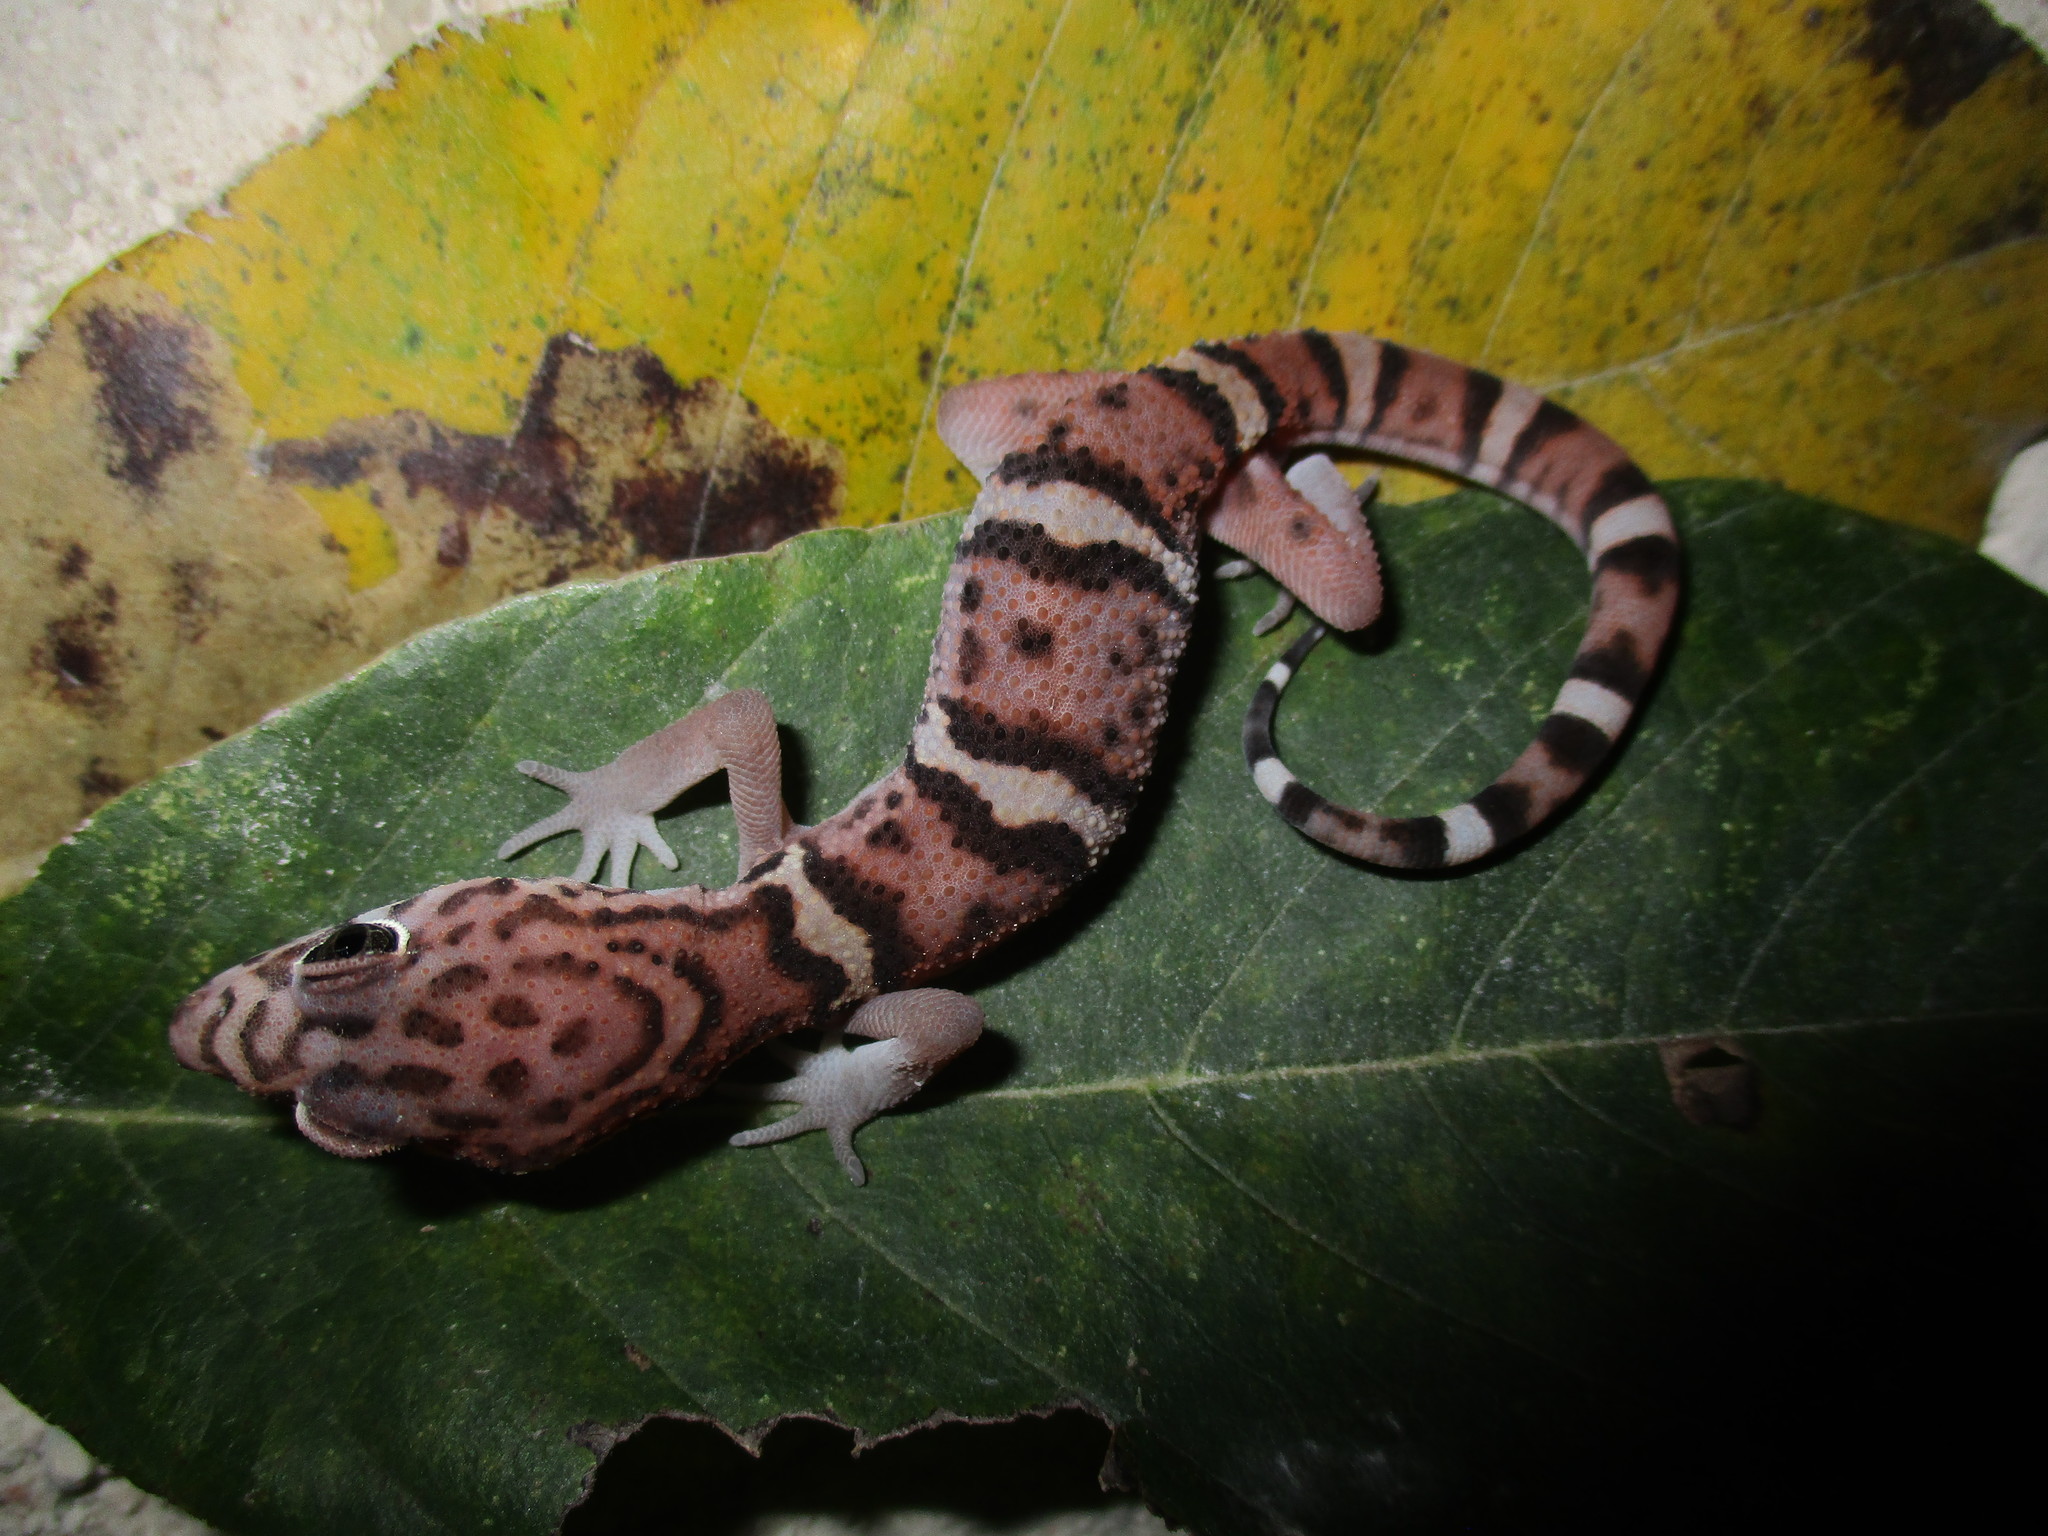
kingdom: Animalia
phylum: Chordata
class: Squamata
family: Eublepharidae
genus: Coleonyx
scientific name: Coleonyx elegans
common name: Yucatan banded gecko
